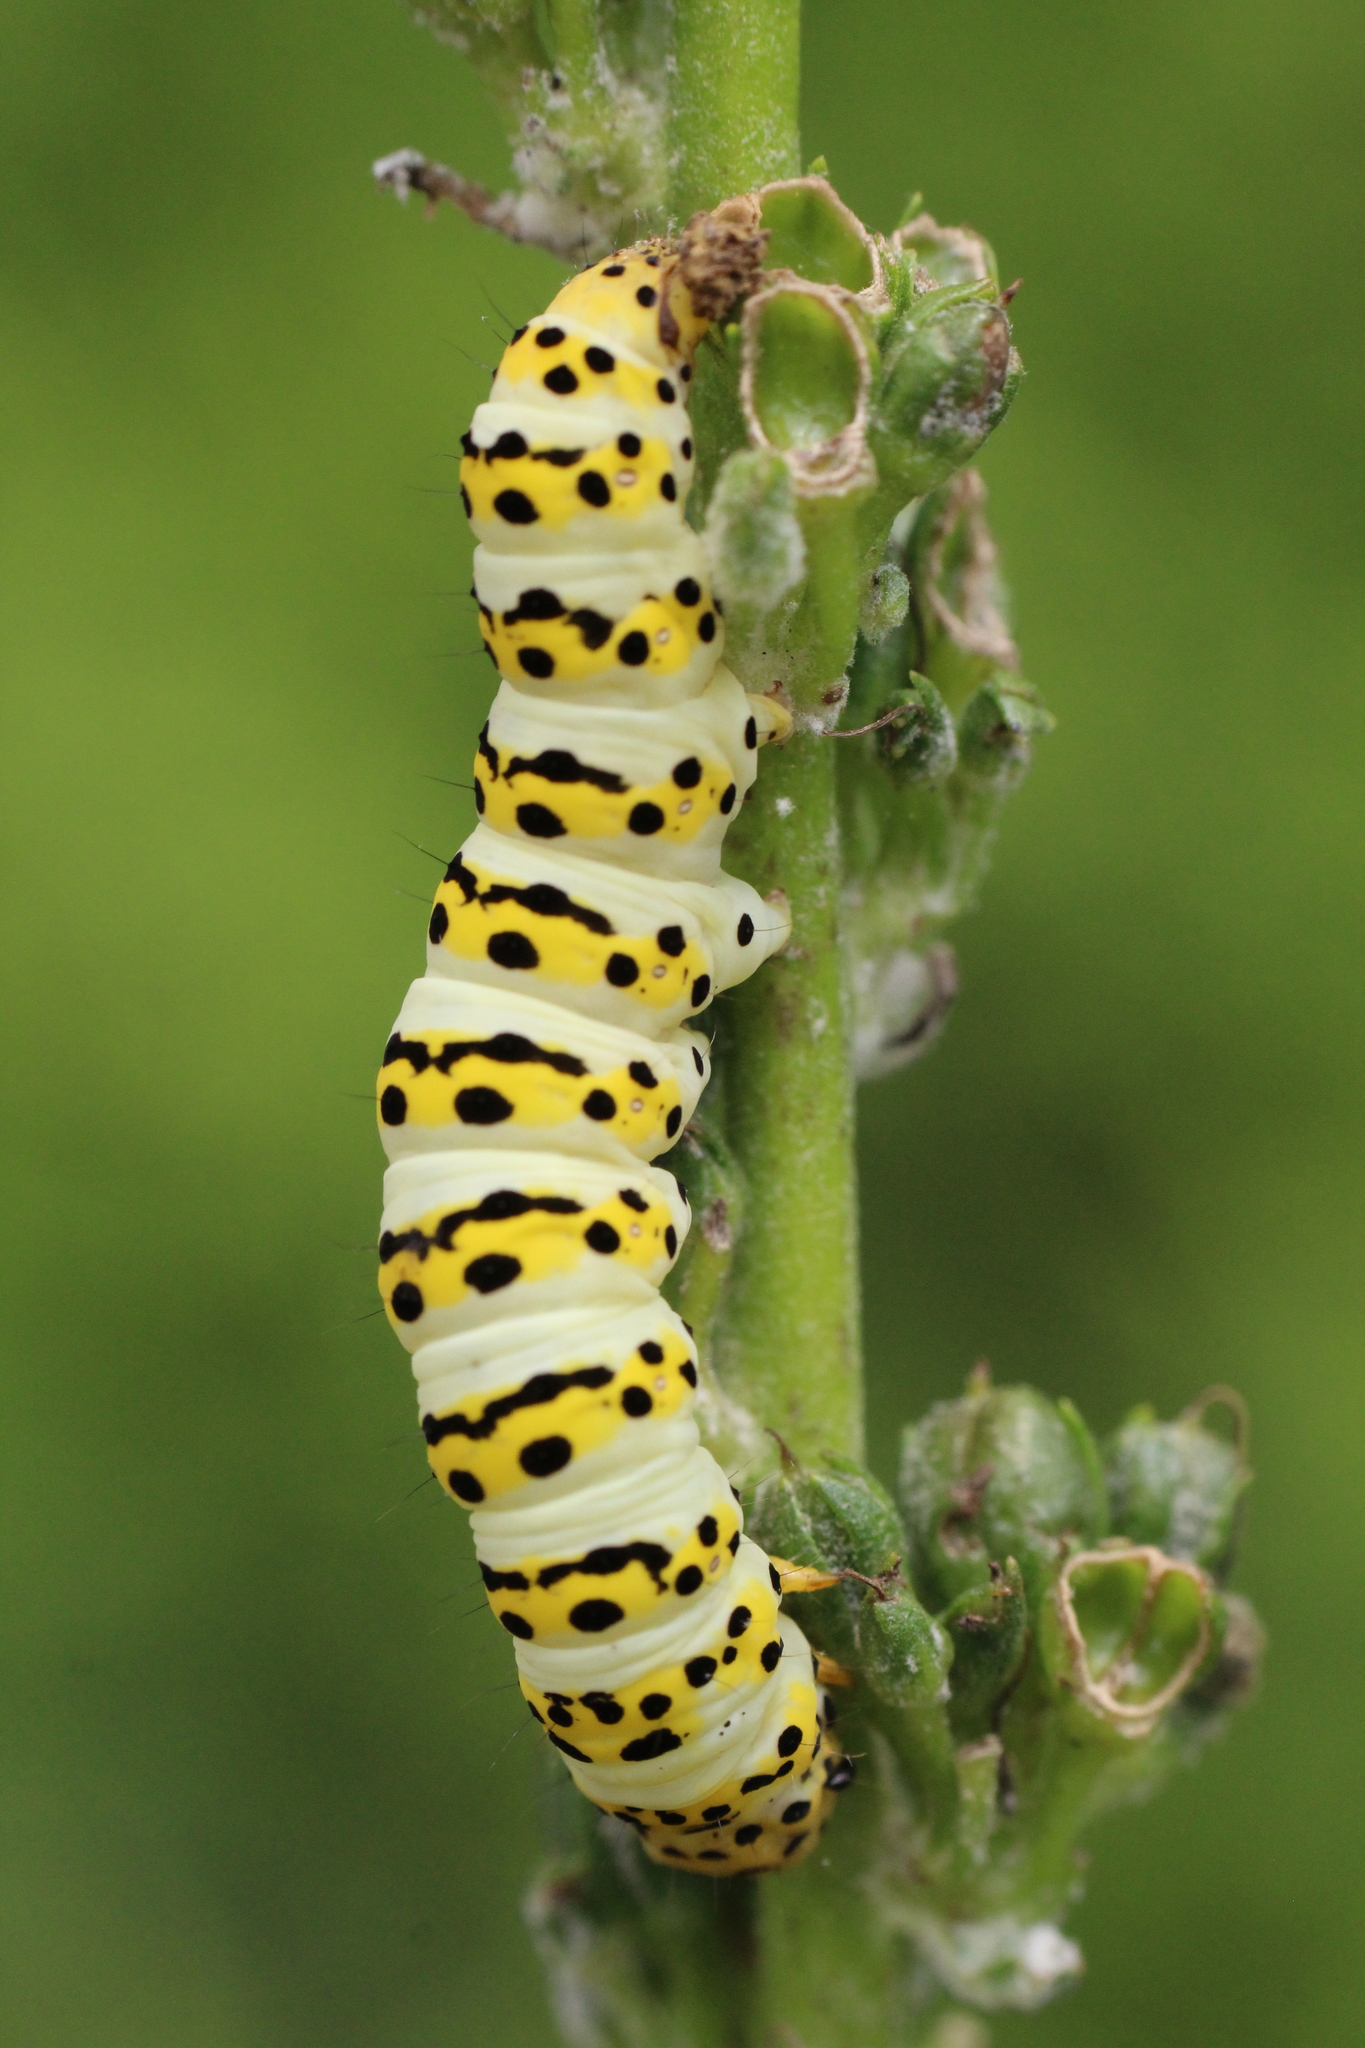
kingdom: Animalia
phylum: Arthropoda
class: Insecta
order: Lepidoptera
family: Noctuidae
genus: Cucullia
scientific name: Cucullia lychnitis
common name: Striped lychnis
